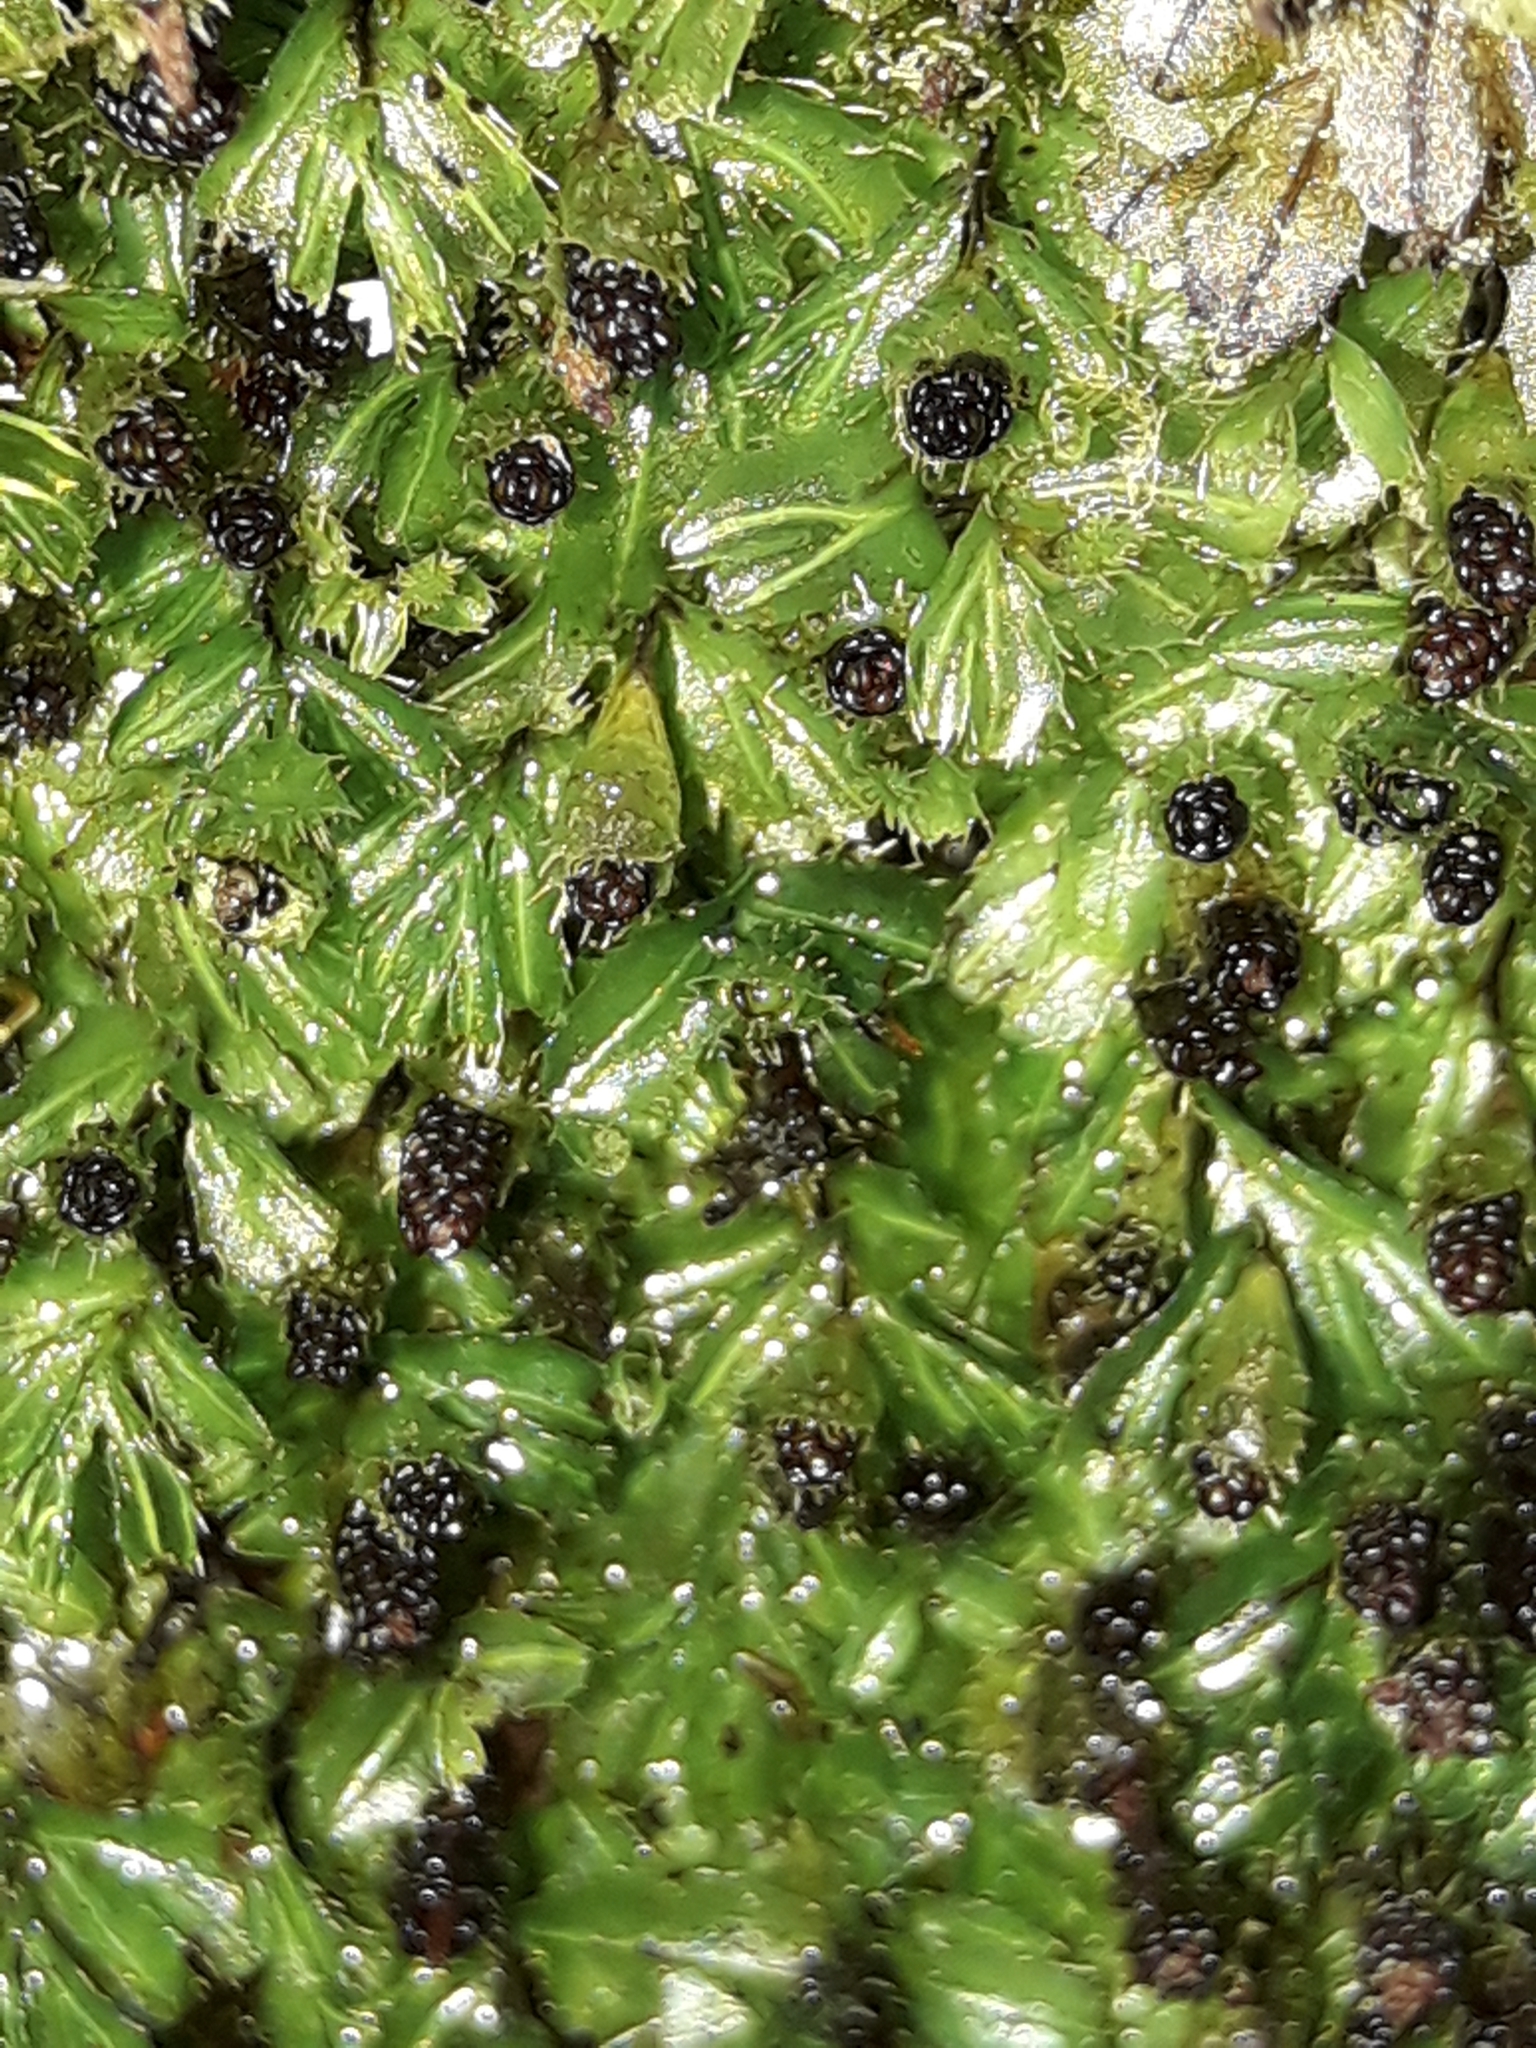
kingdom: Plantae
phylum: Tracheophyta
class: Polypodiopsida
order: Hymenophyllales
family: Hymenophyllaceae
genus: Hymenophyllum
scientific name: Hymenophyllum minimum
